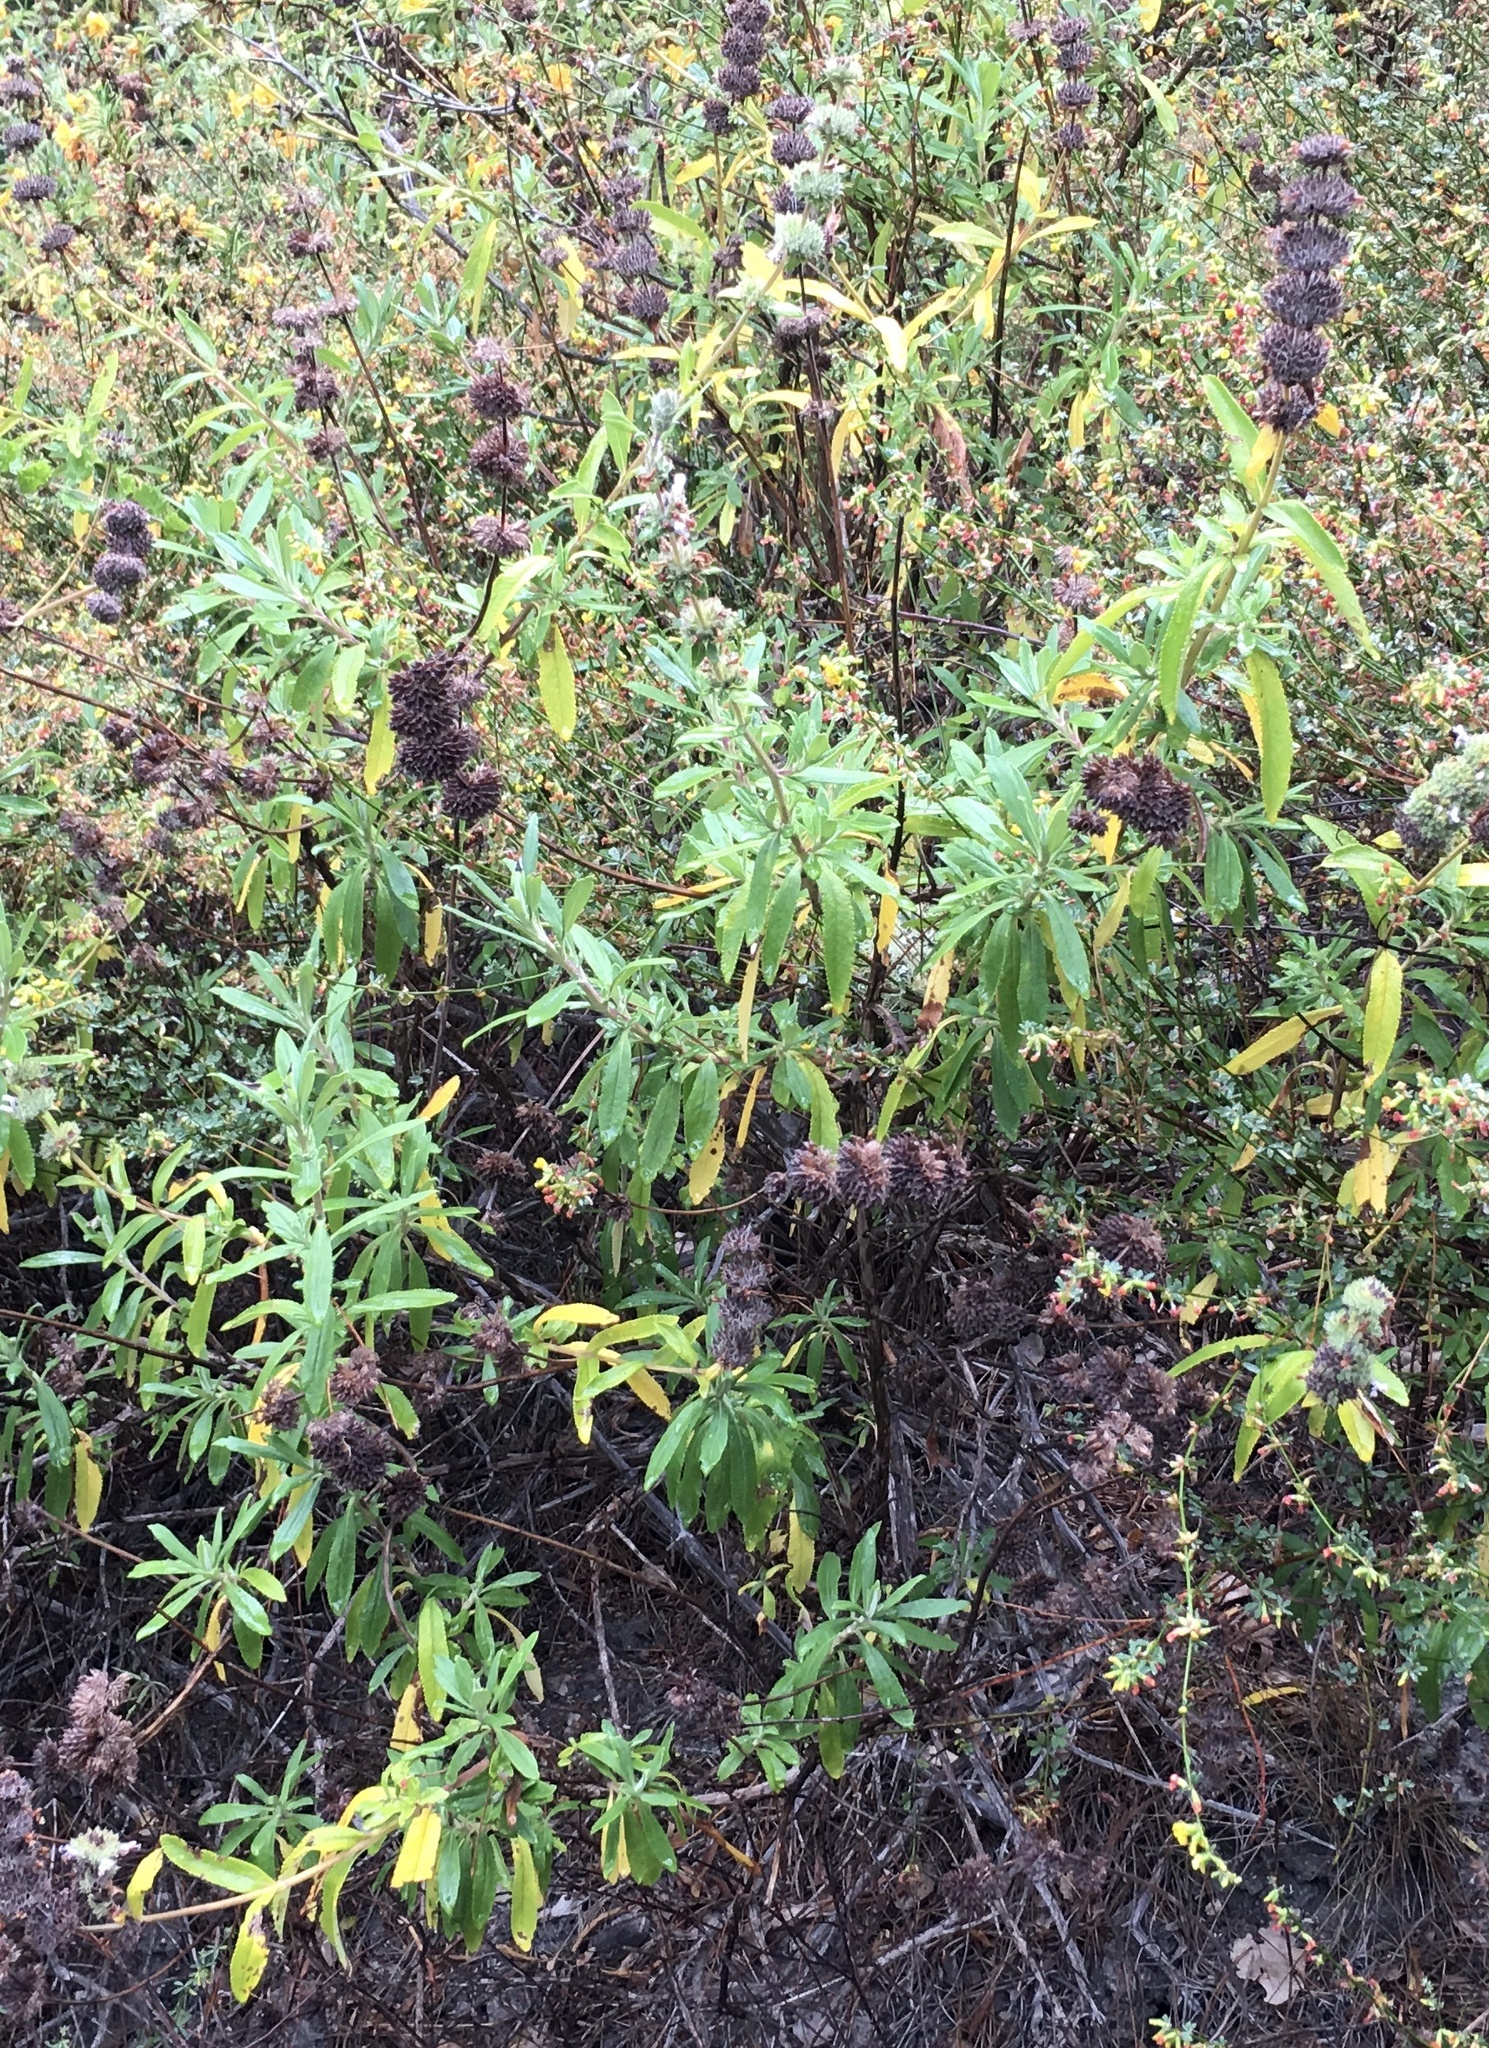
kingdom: Plantae
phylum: Tracheophyta
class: Magnoliopsida
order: Lamiales
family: Lamiaceae
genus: Salvia
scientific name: Salvia mellifera
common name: Black sage
